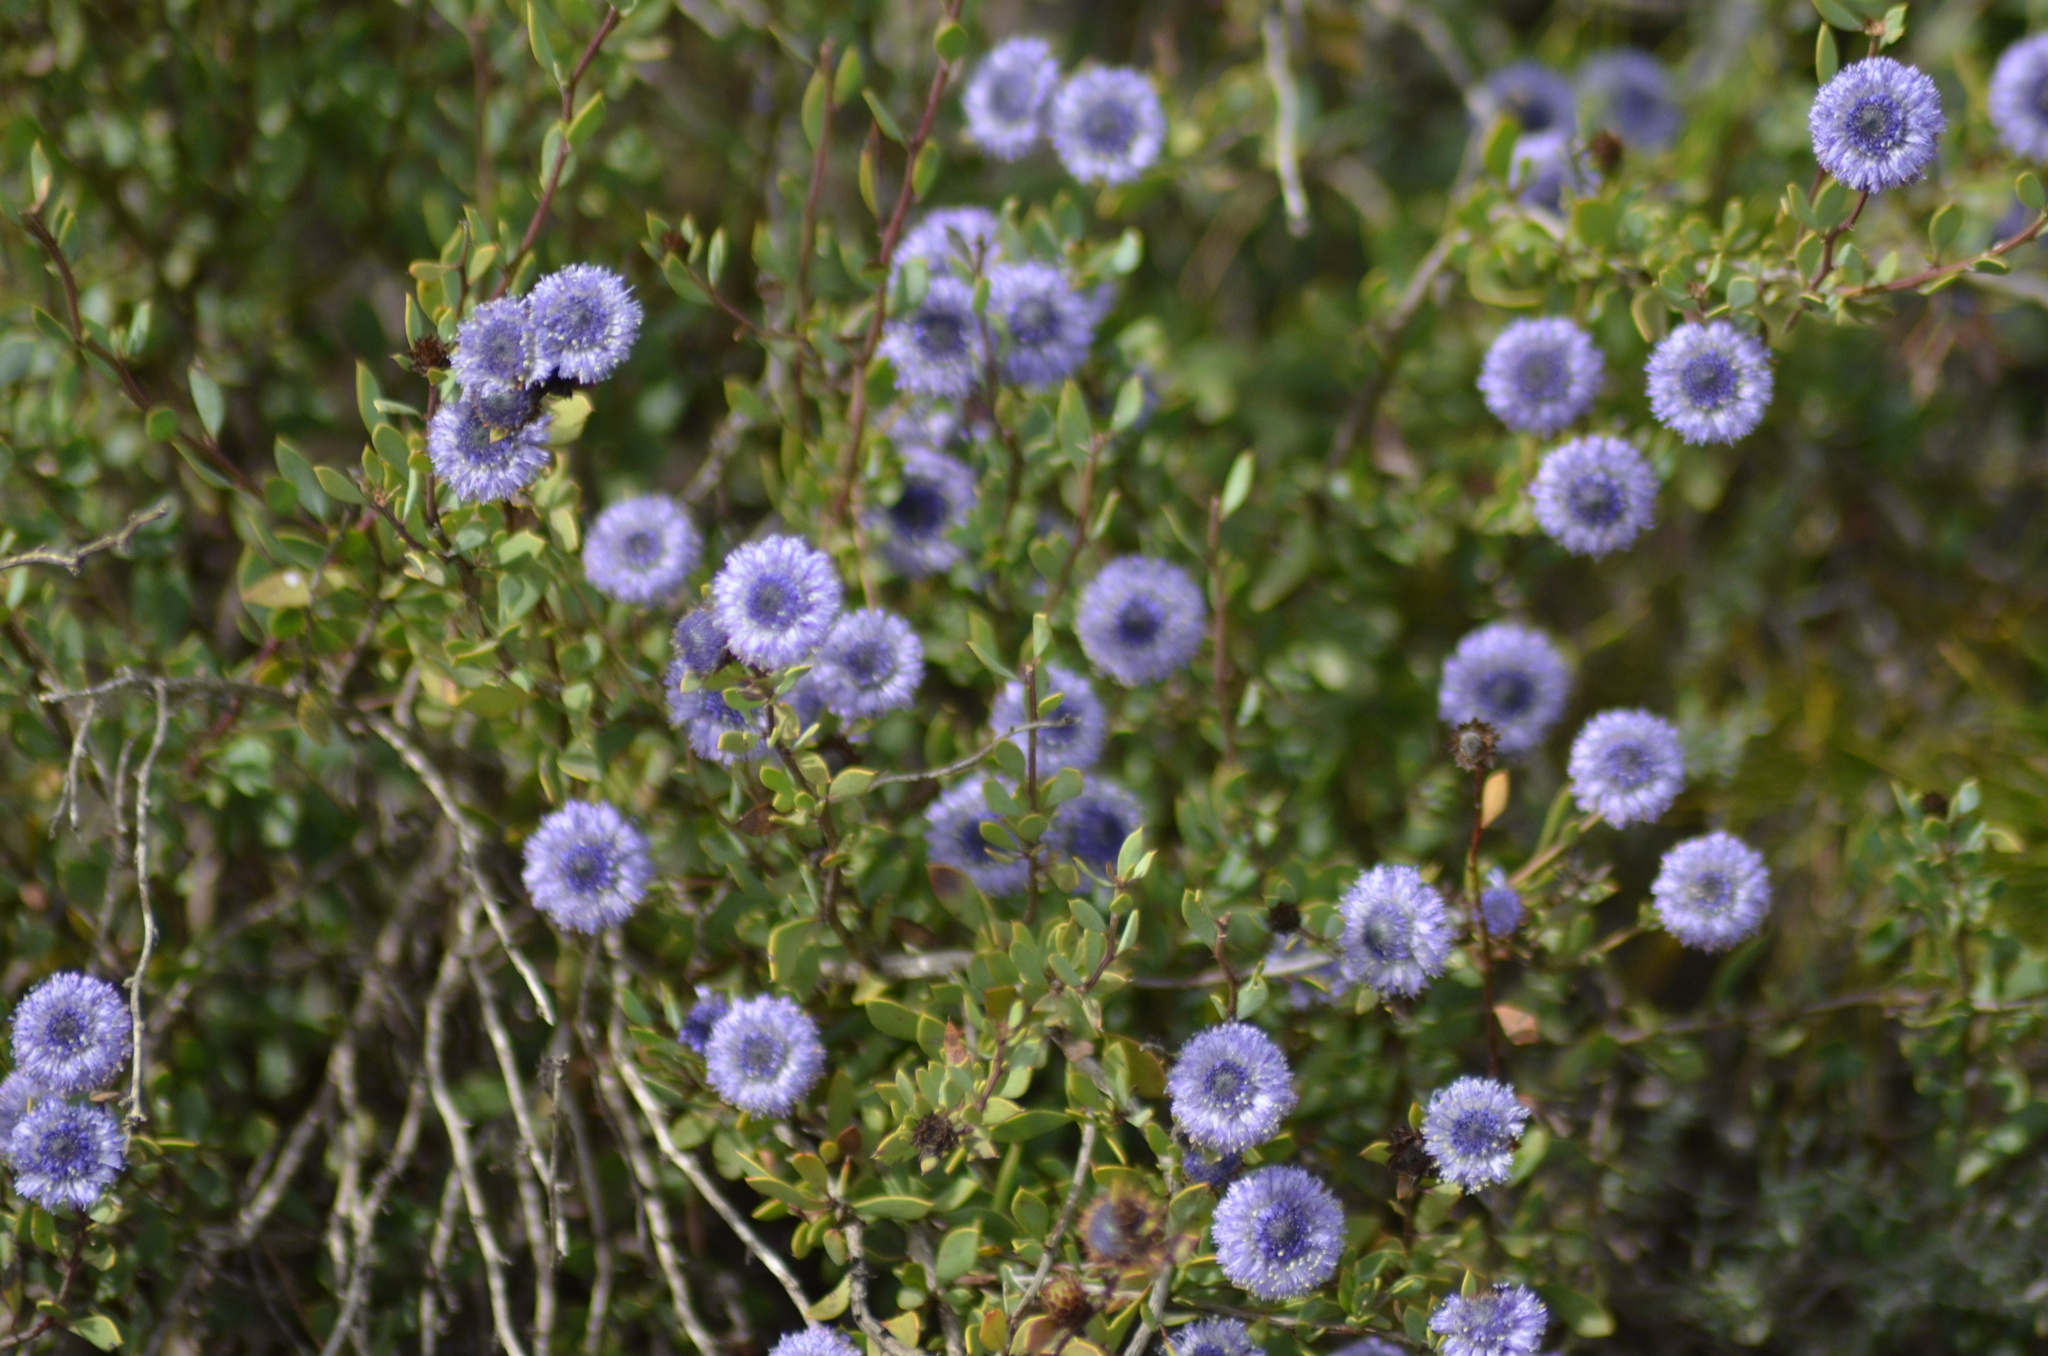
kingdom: Plantae
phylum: Tracheophyta
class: Magnoliopsida
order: Lamiales
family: Plantaginaceae
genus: Globularia
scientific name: Globularia alypum
